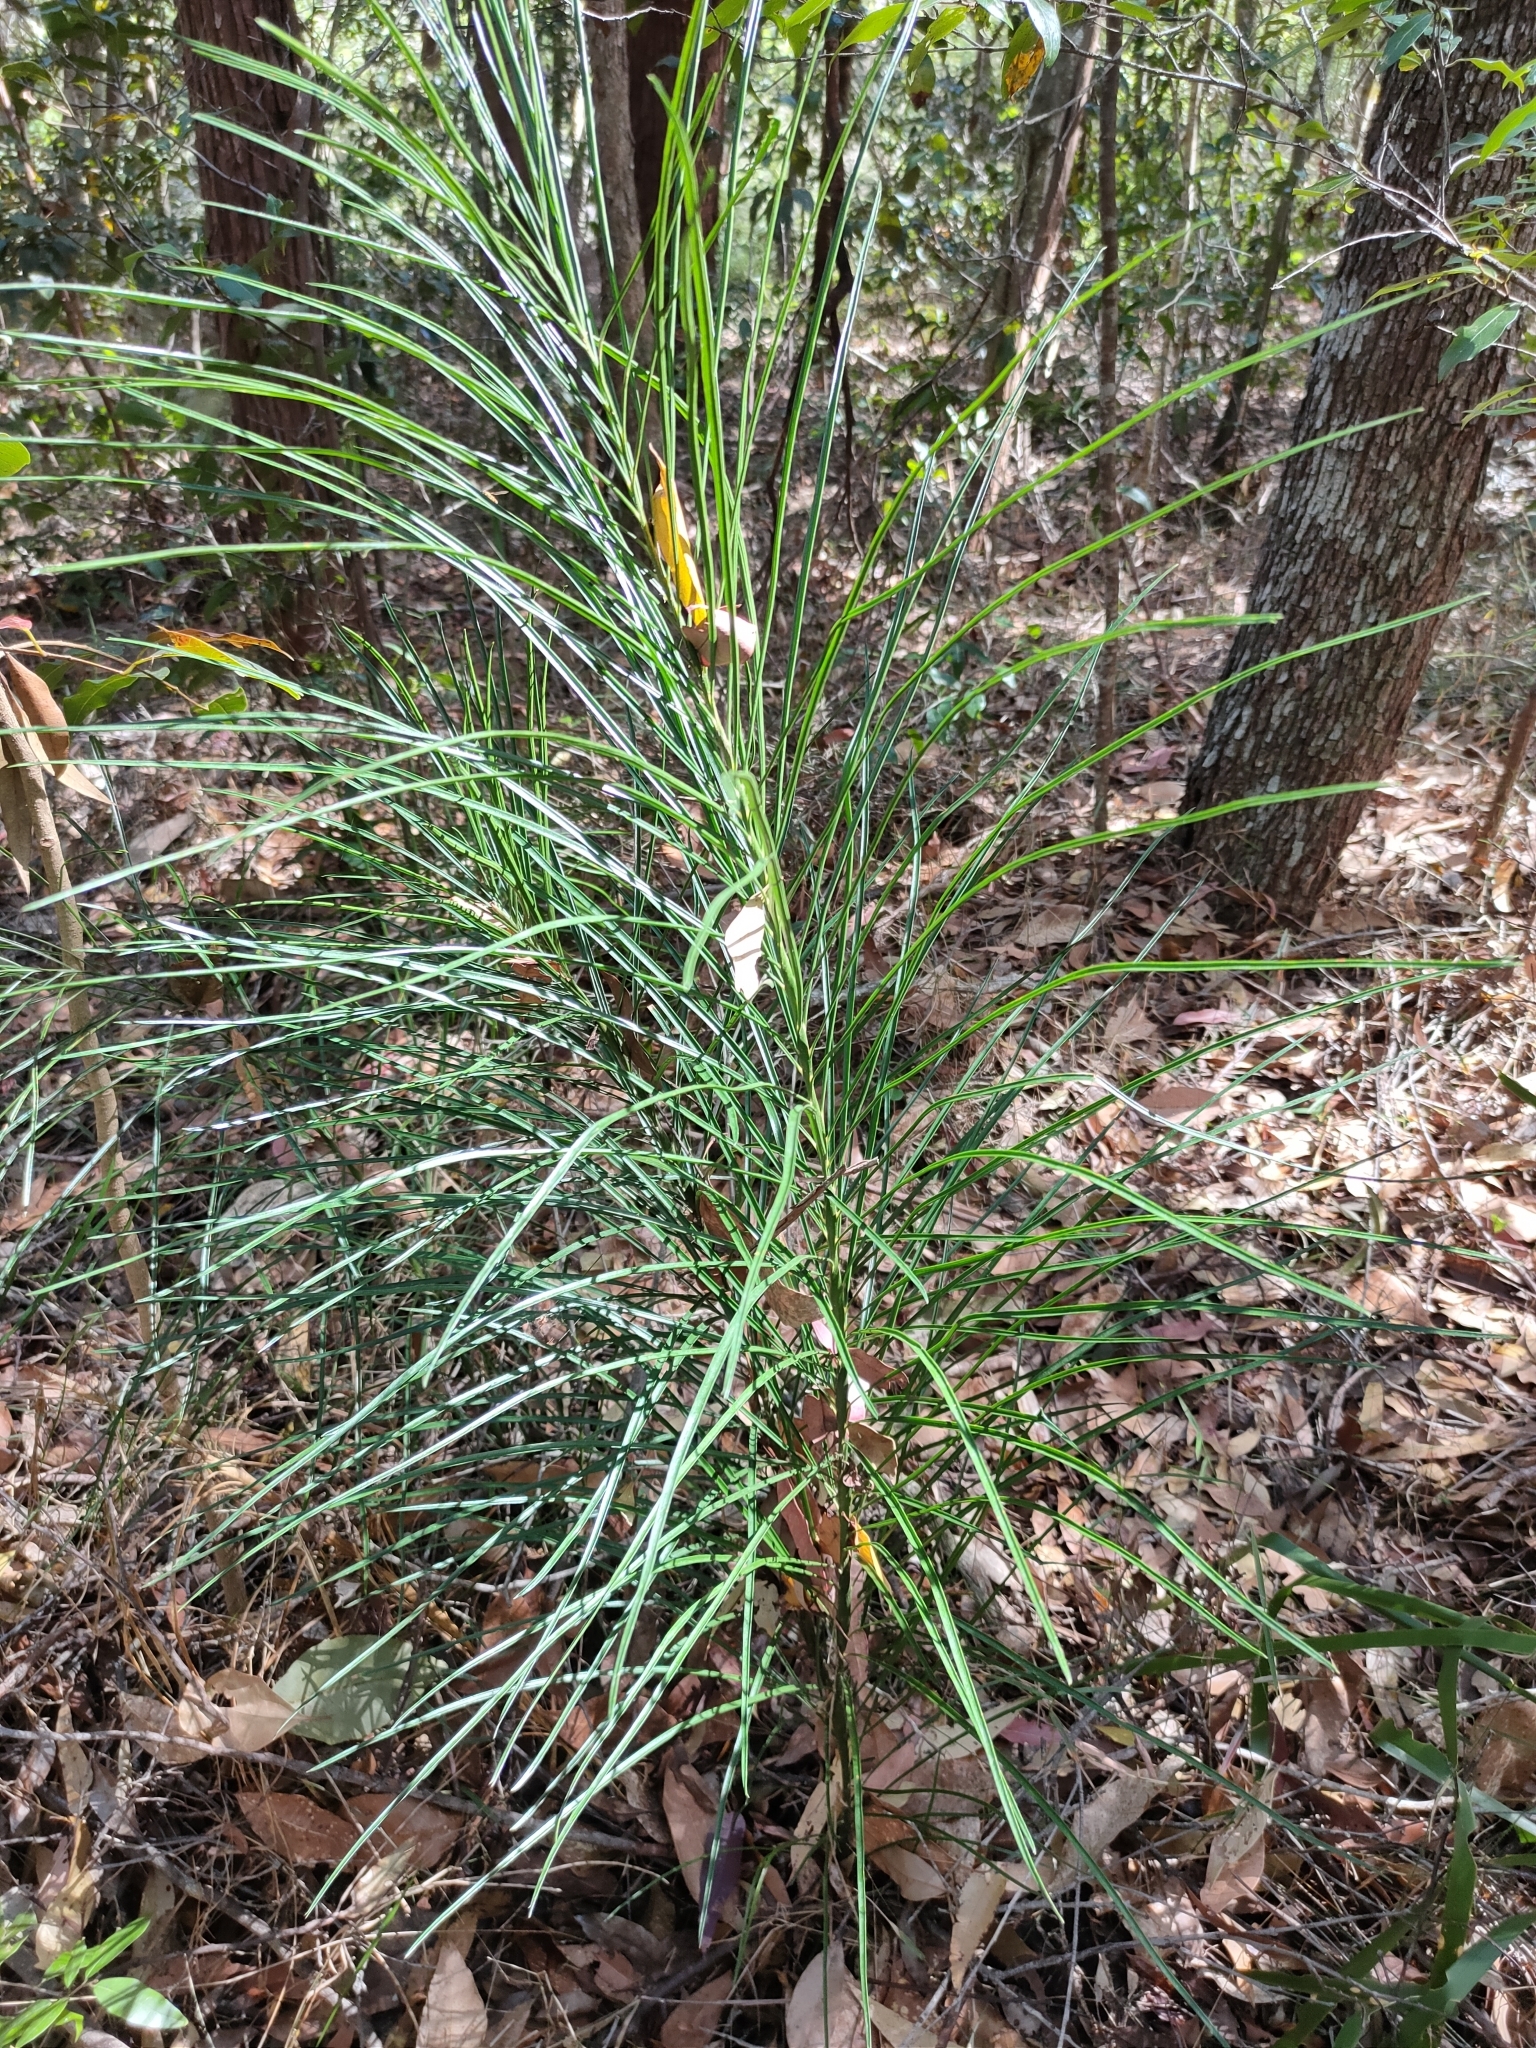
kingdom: Plantae
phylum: Tracheophyta
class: Cycadopsida
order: Cycadales
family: Zamiaceae
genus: Macrozamia
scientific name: Macrozamia pauli-guilielmi
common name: Pineapple zamia
